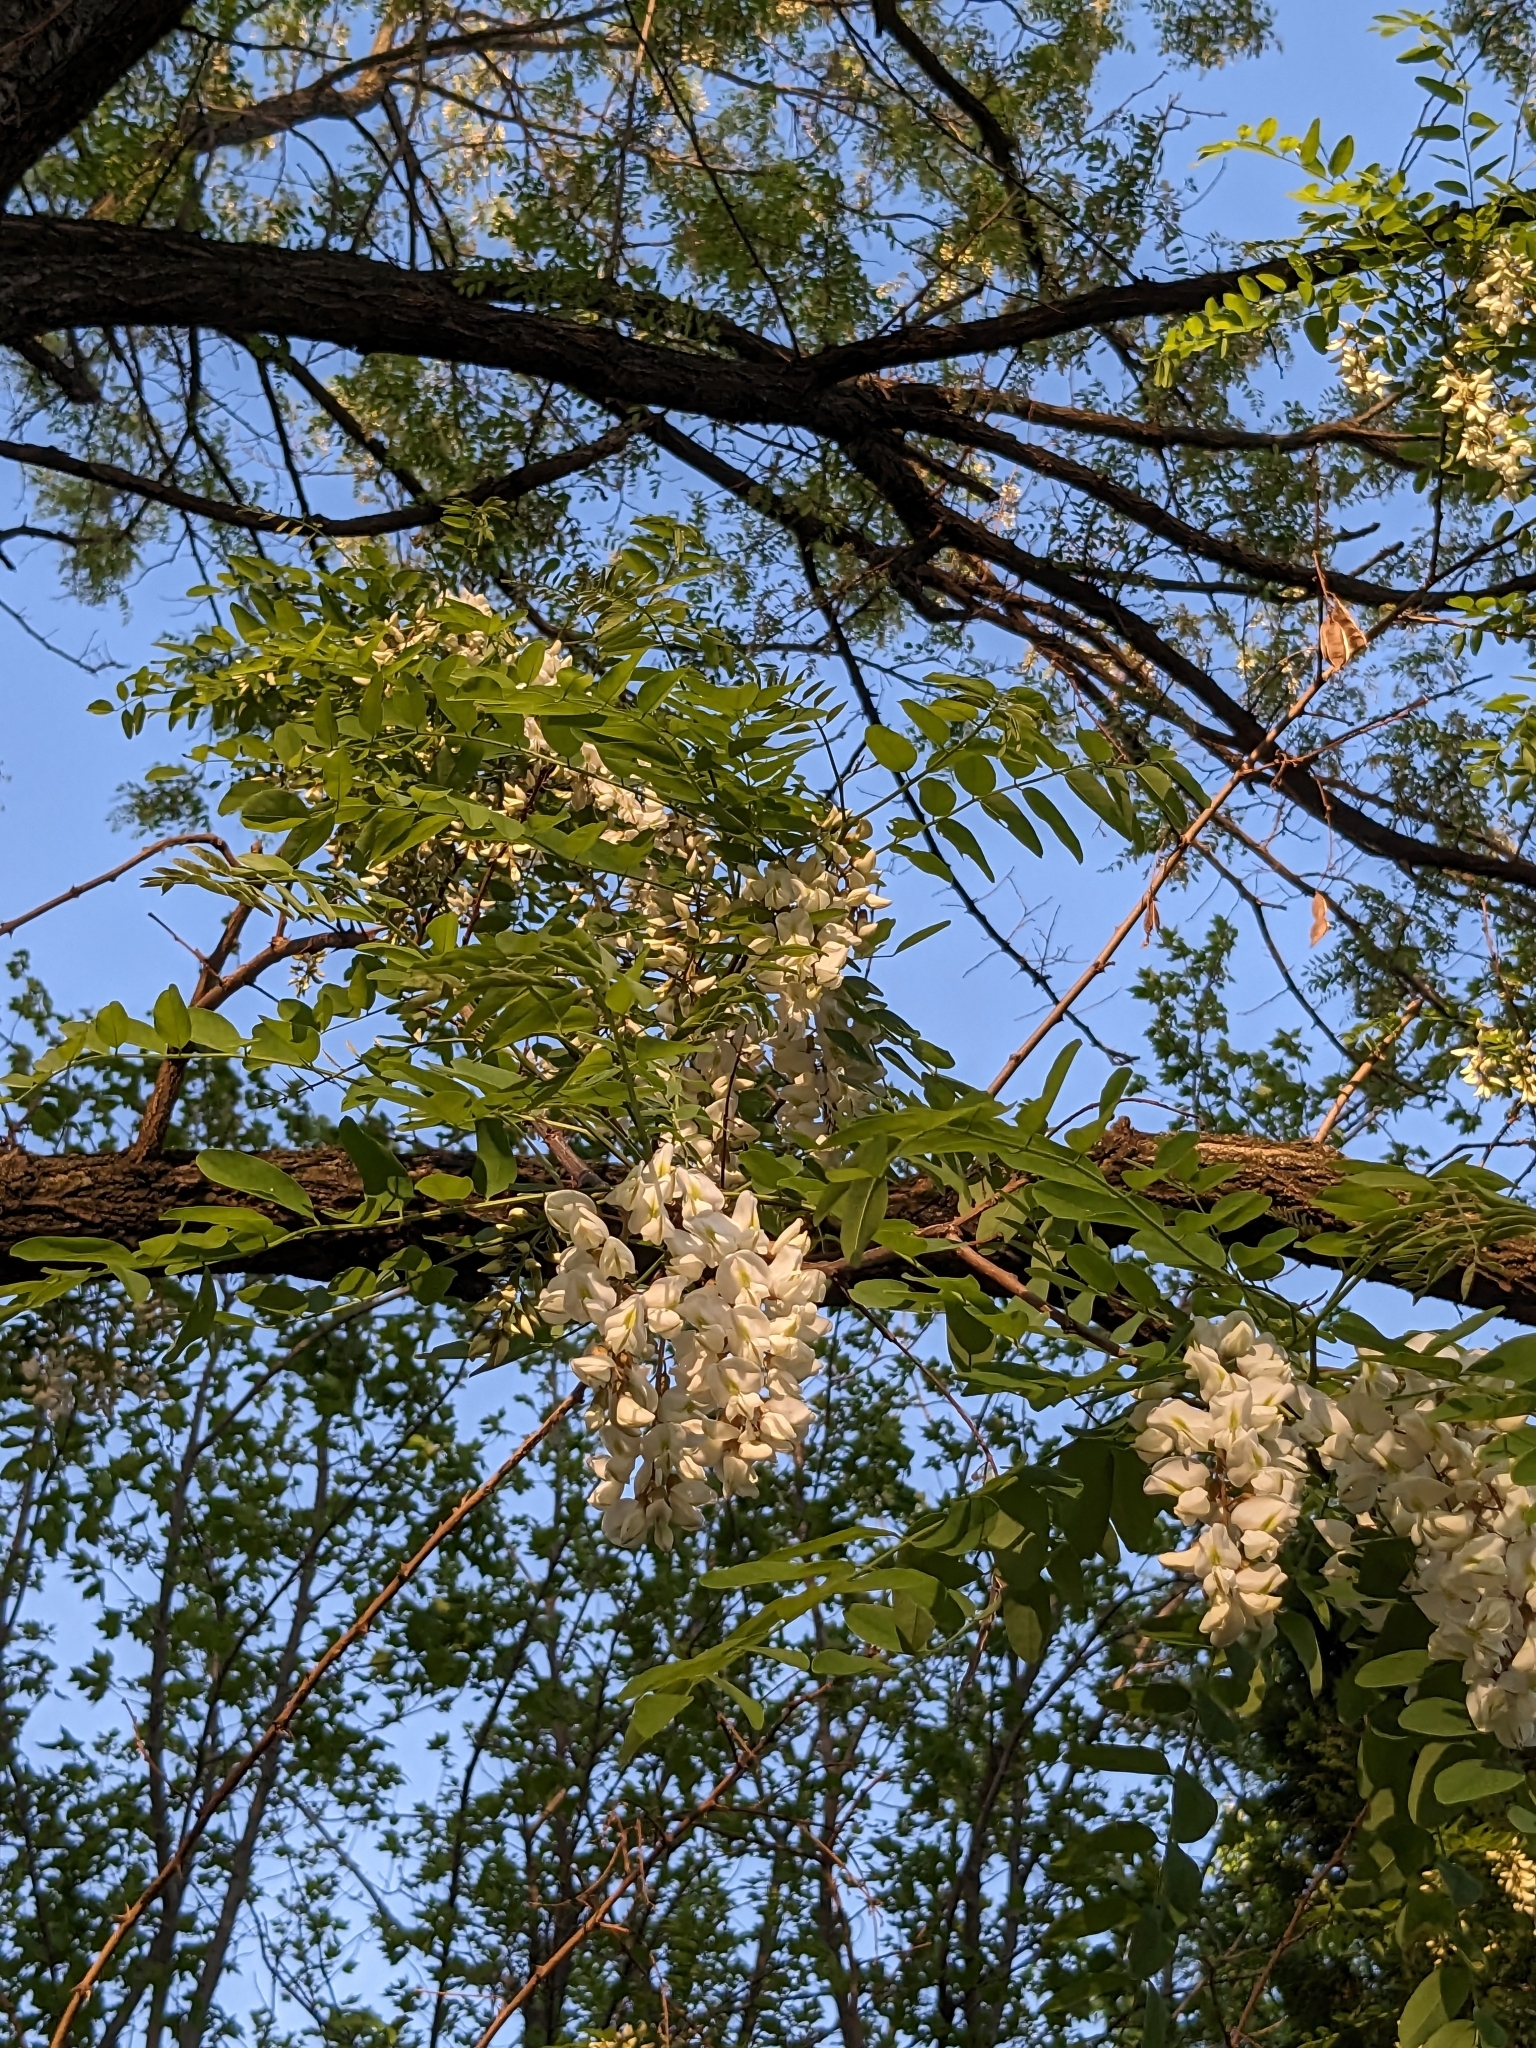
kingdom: Plantae
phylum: Tracheophyta
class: Magnoliopsida
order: Fabales
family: Fabaceae
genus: Robinia
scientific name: Robinia pseudoacacia
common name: Black locust
